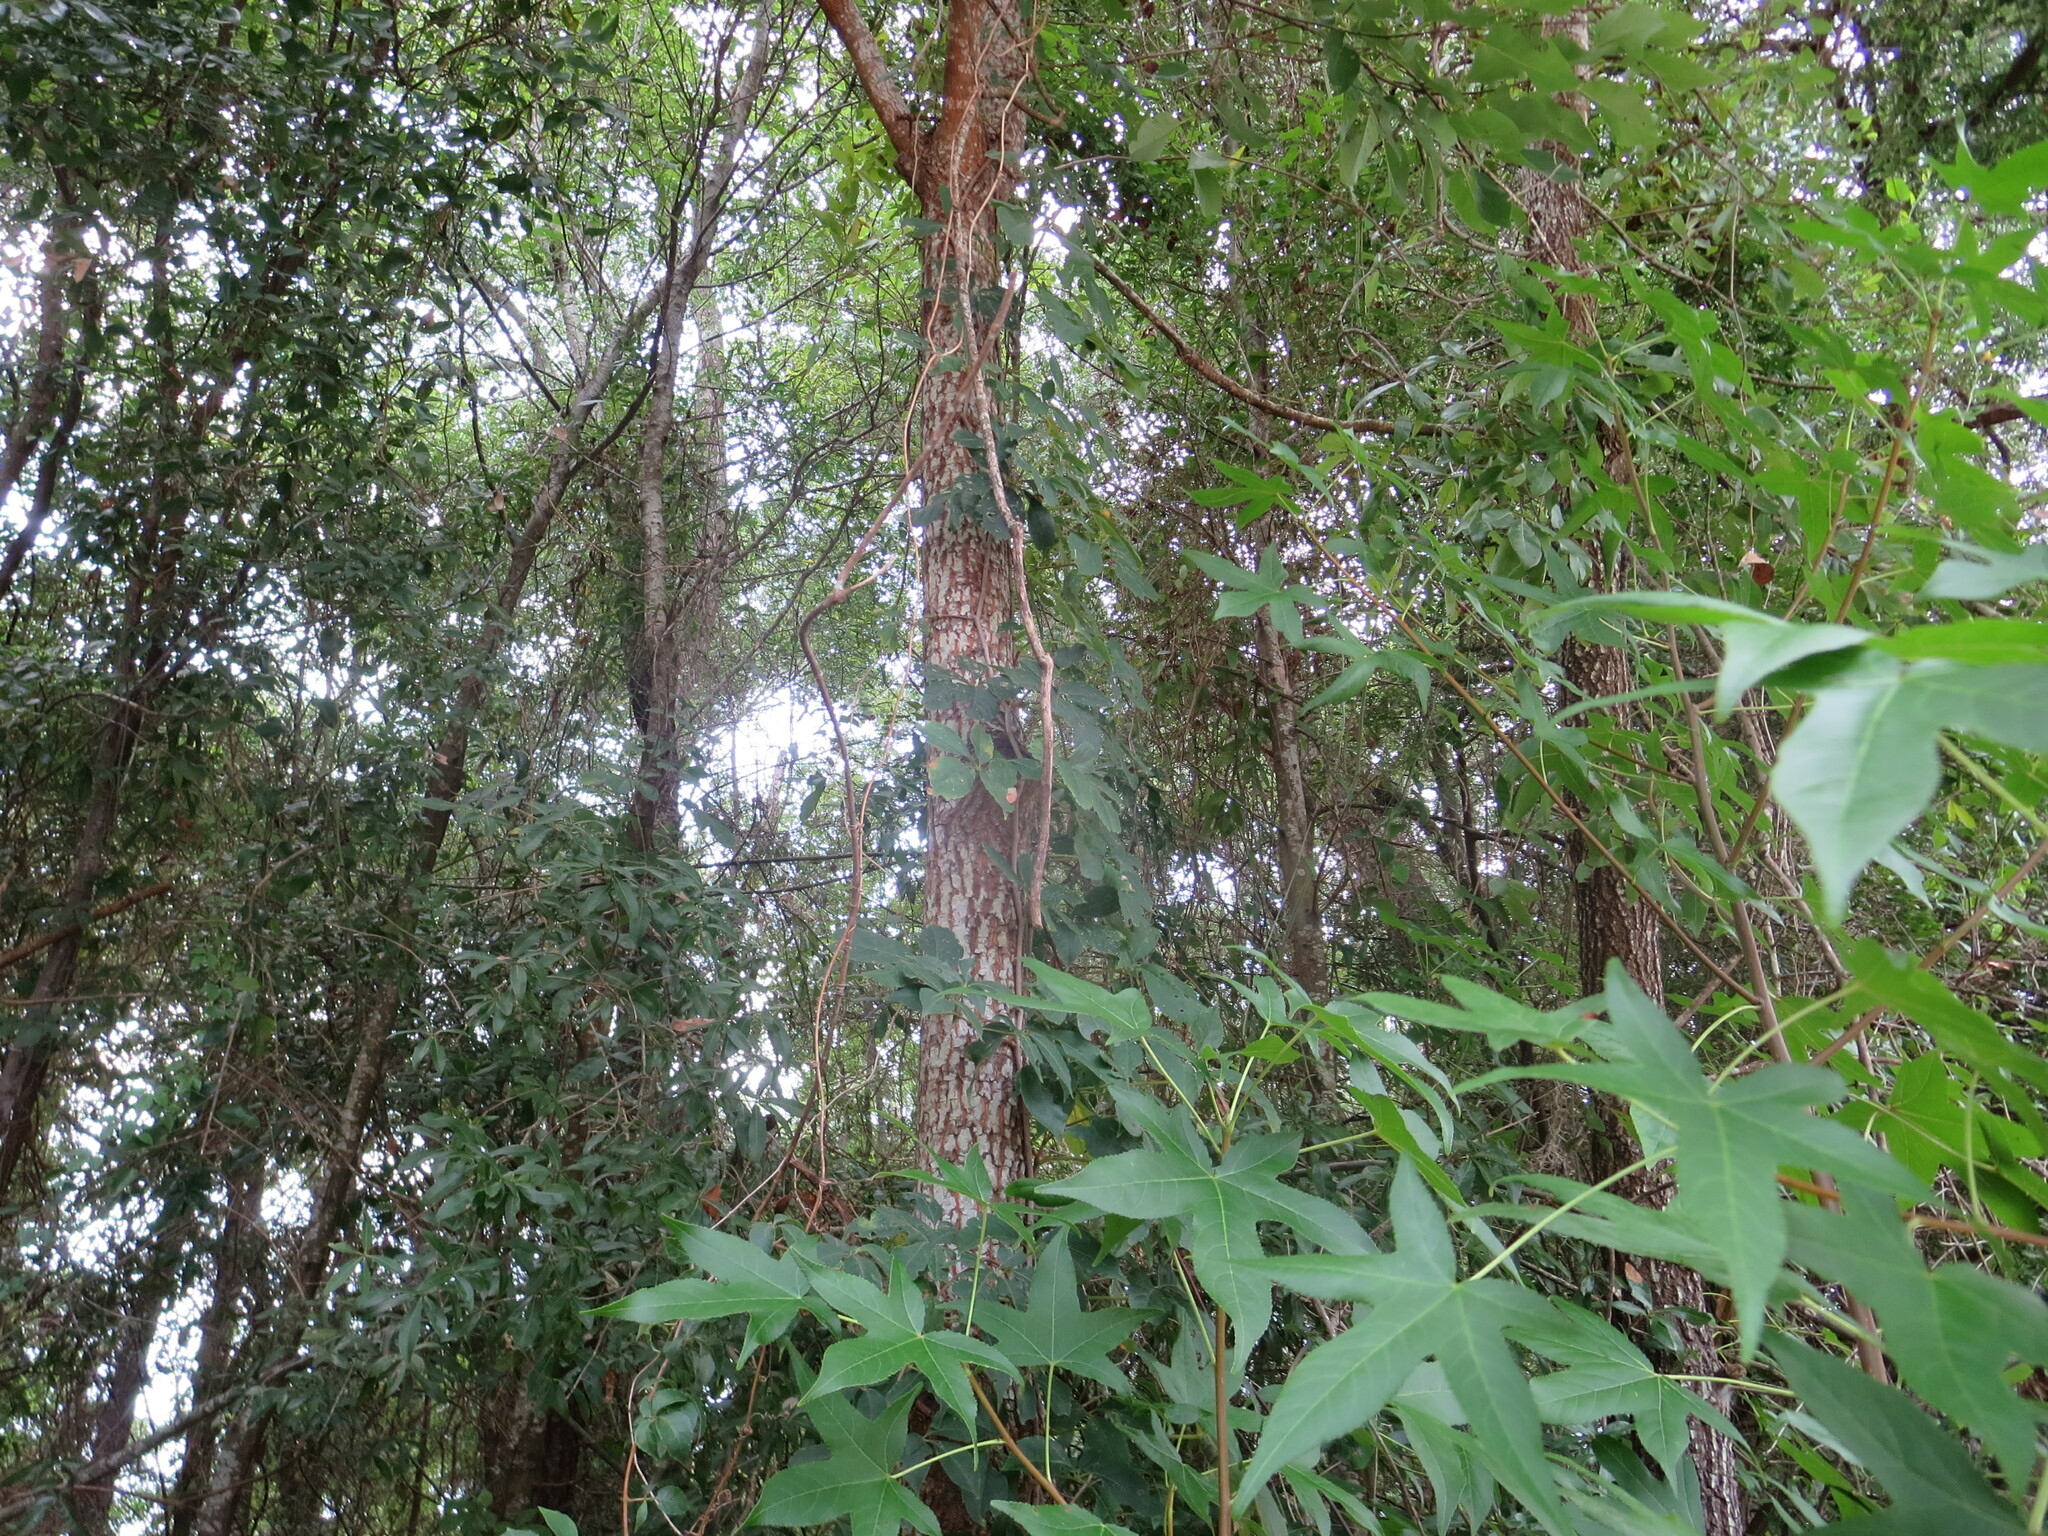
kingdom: Plantae
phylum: Tracheophyta
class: Magnoliopsida
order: Ericales
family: Ebenaceae
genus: Diospyros
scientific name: Diospyros virginiana
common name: Persimmon
